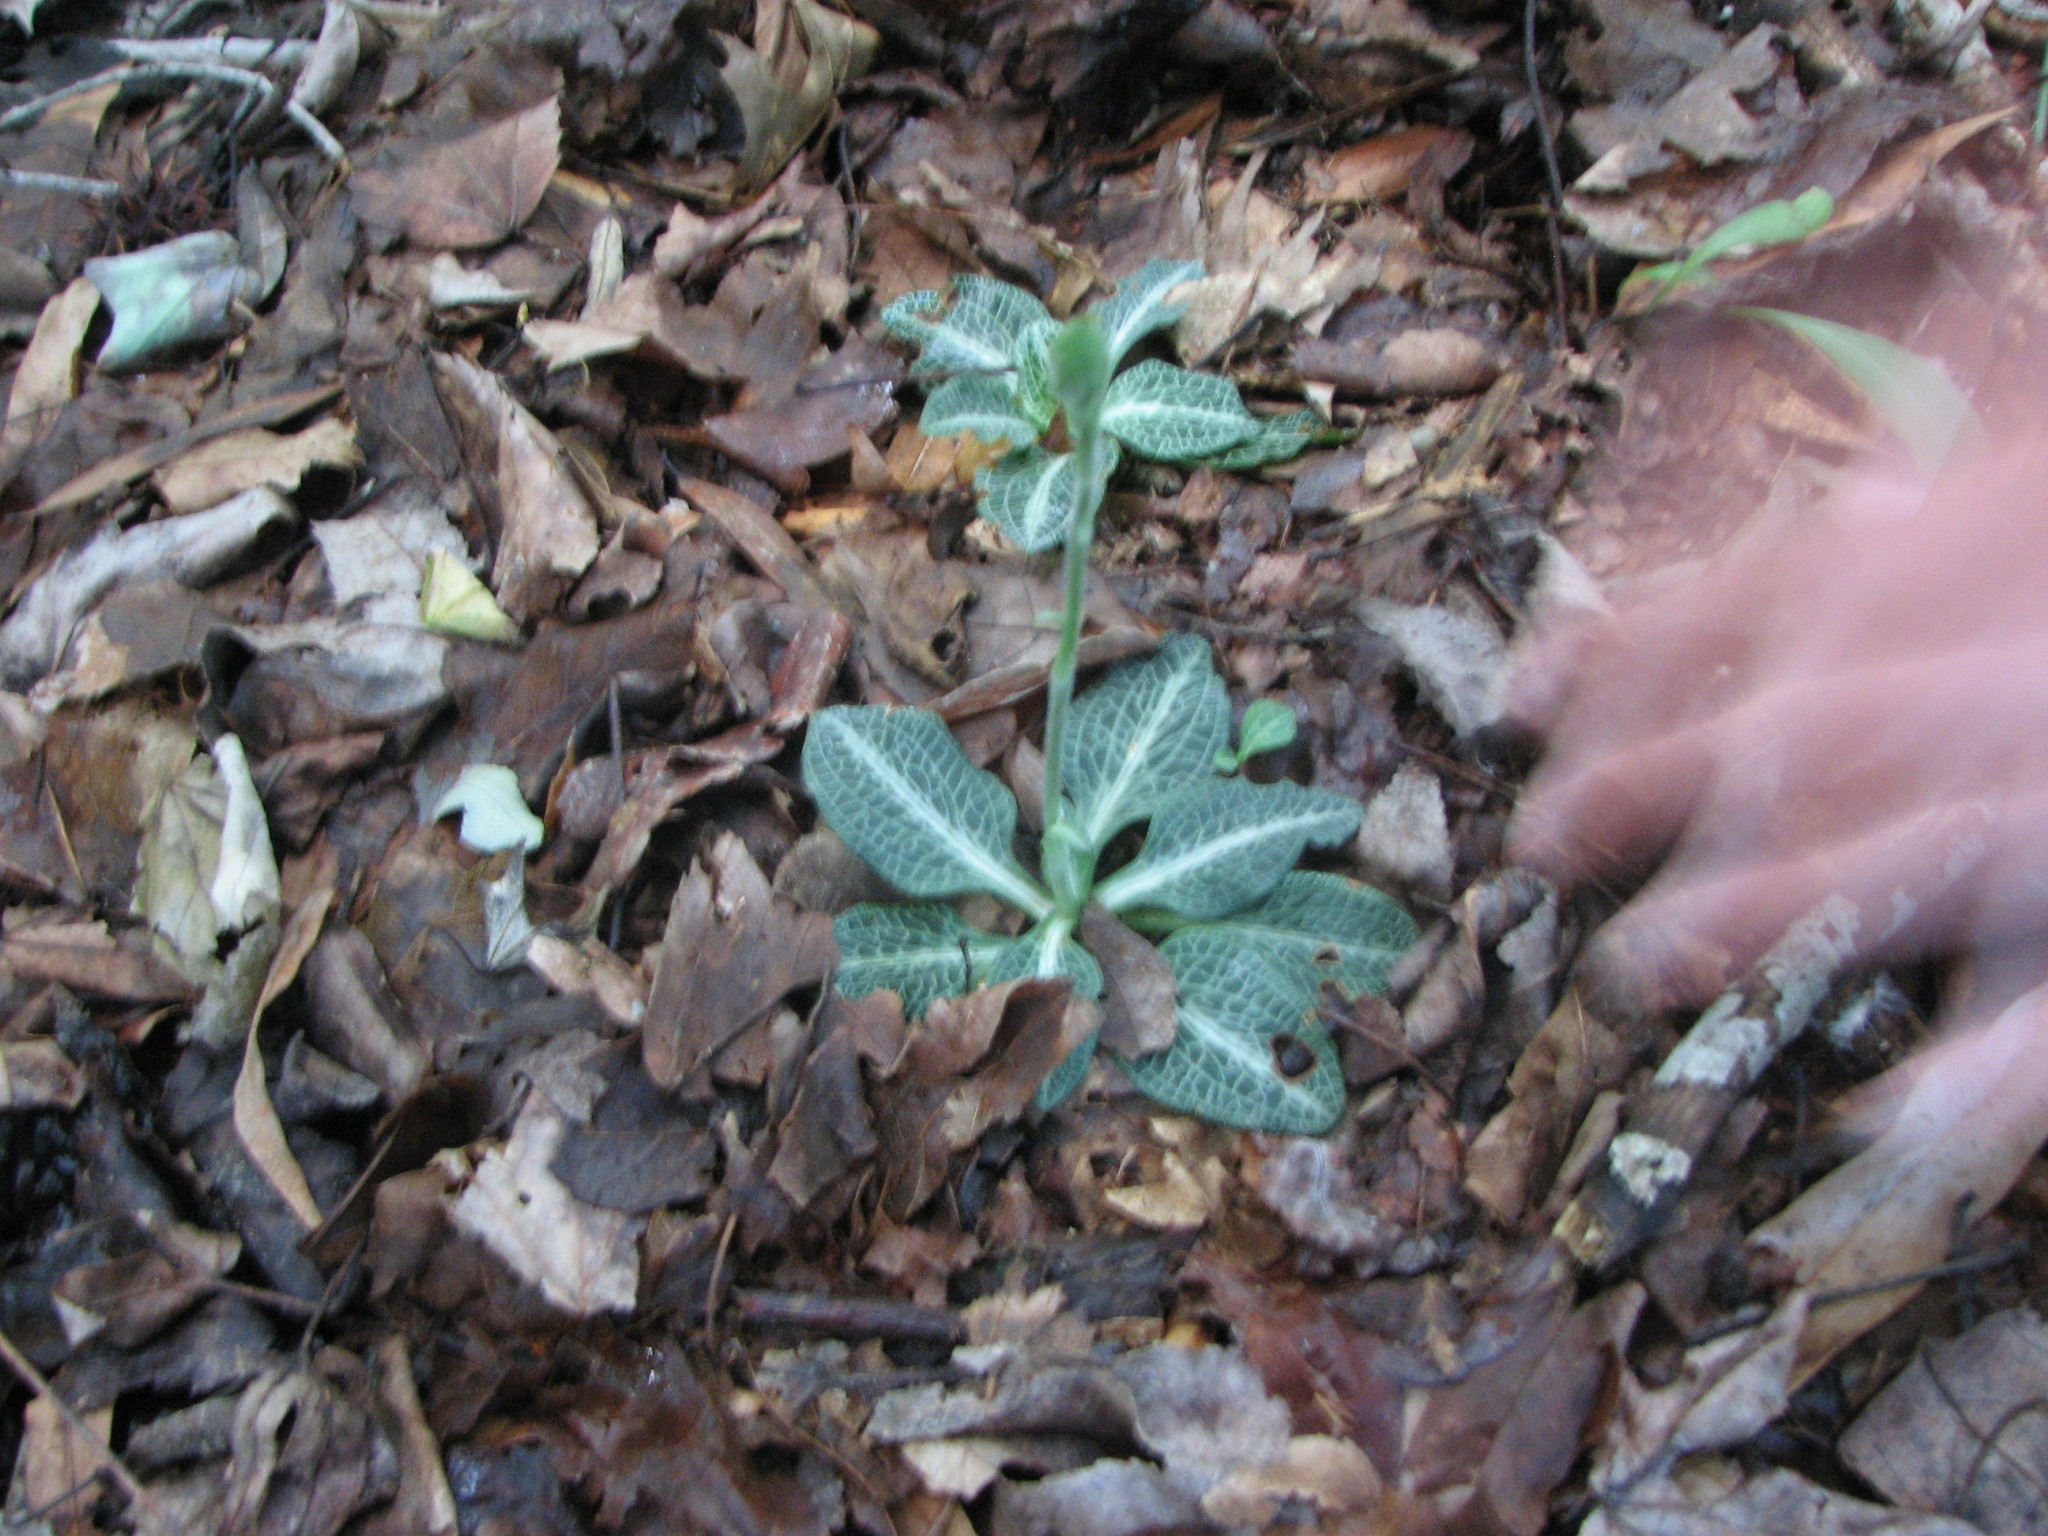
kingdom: Plantae
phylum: Tracheophyta
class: Liliopsida
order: Asparagales
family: Orchidaceae
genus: Goodyera
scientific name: Goodyera pubescens
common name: Downy rattlesnake-plantain
